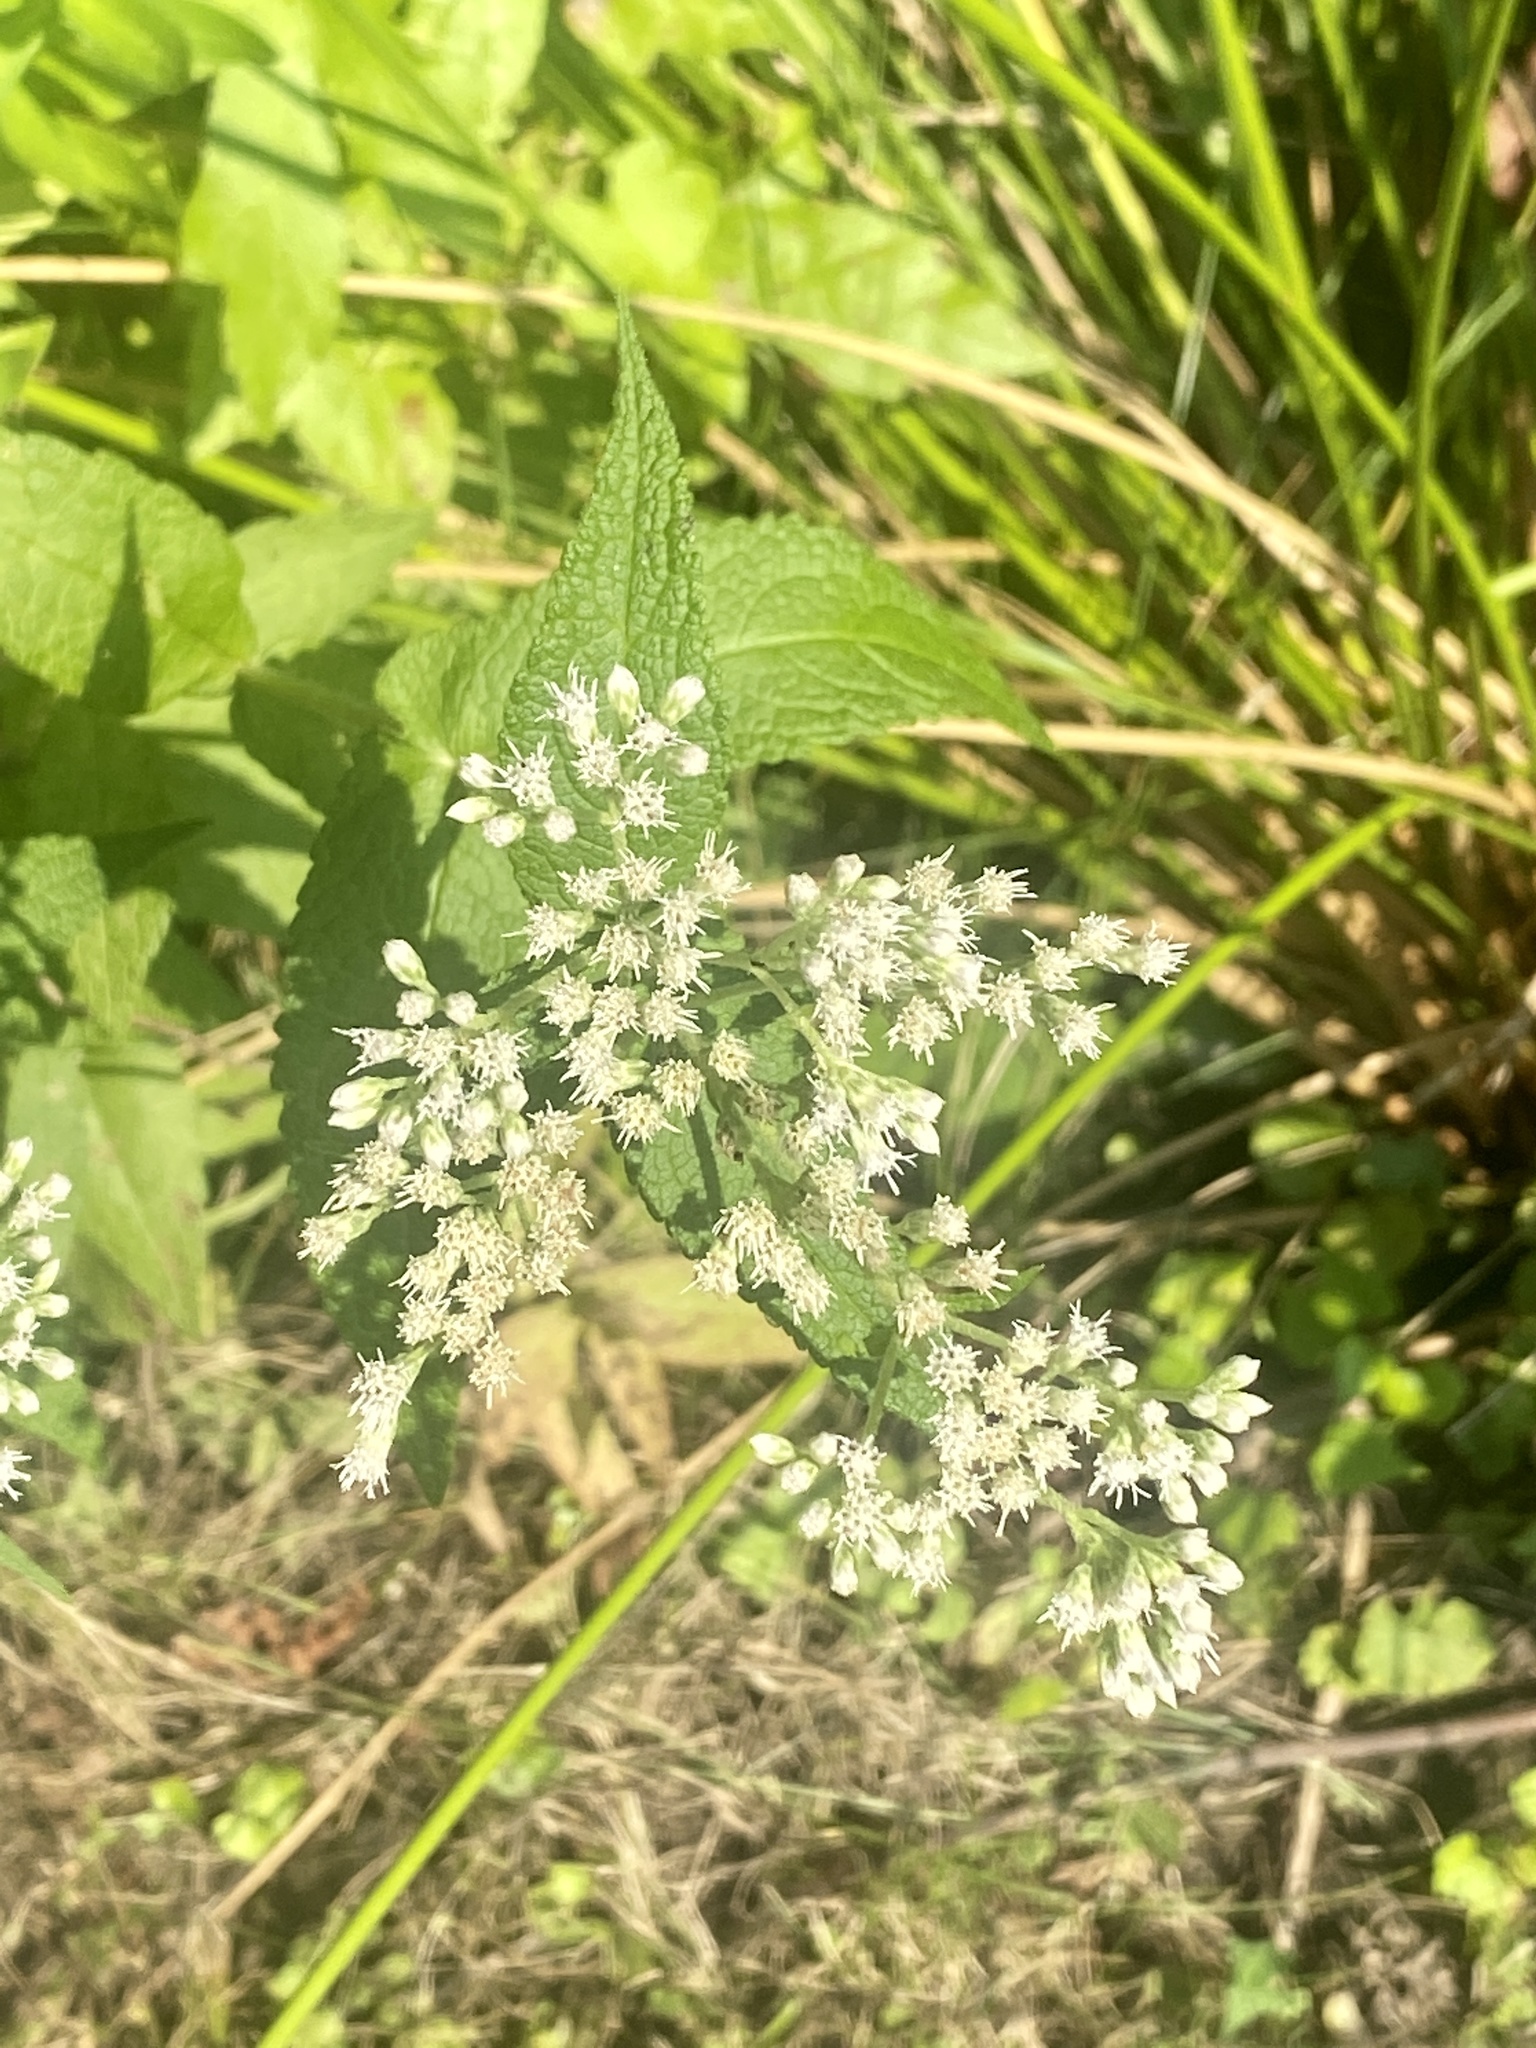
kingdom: Plantae
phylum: Tracheophyta
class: Magnoliopsida
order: Asterales
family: Asteraceae
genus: Eupatorium
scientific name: Eupatorium perfoliatum
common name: Boneset
